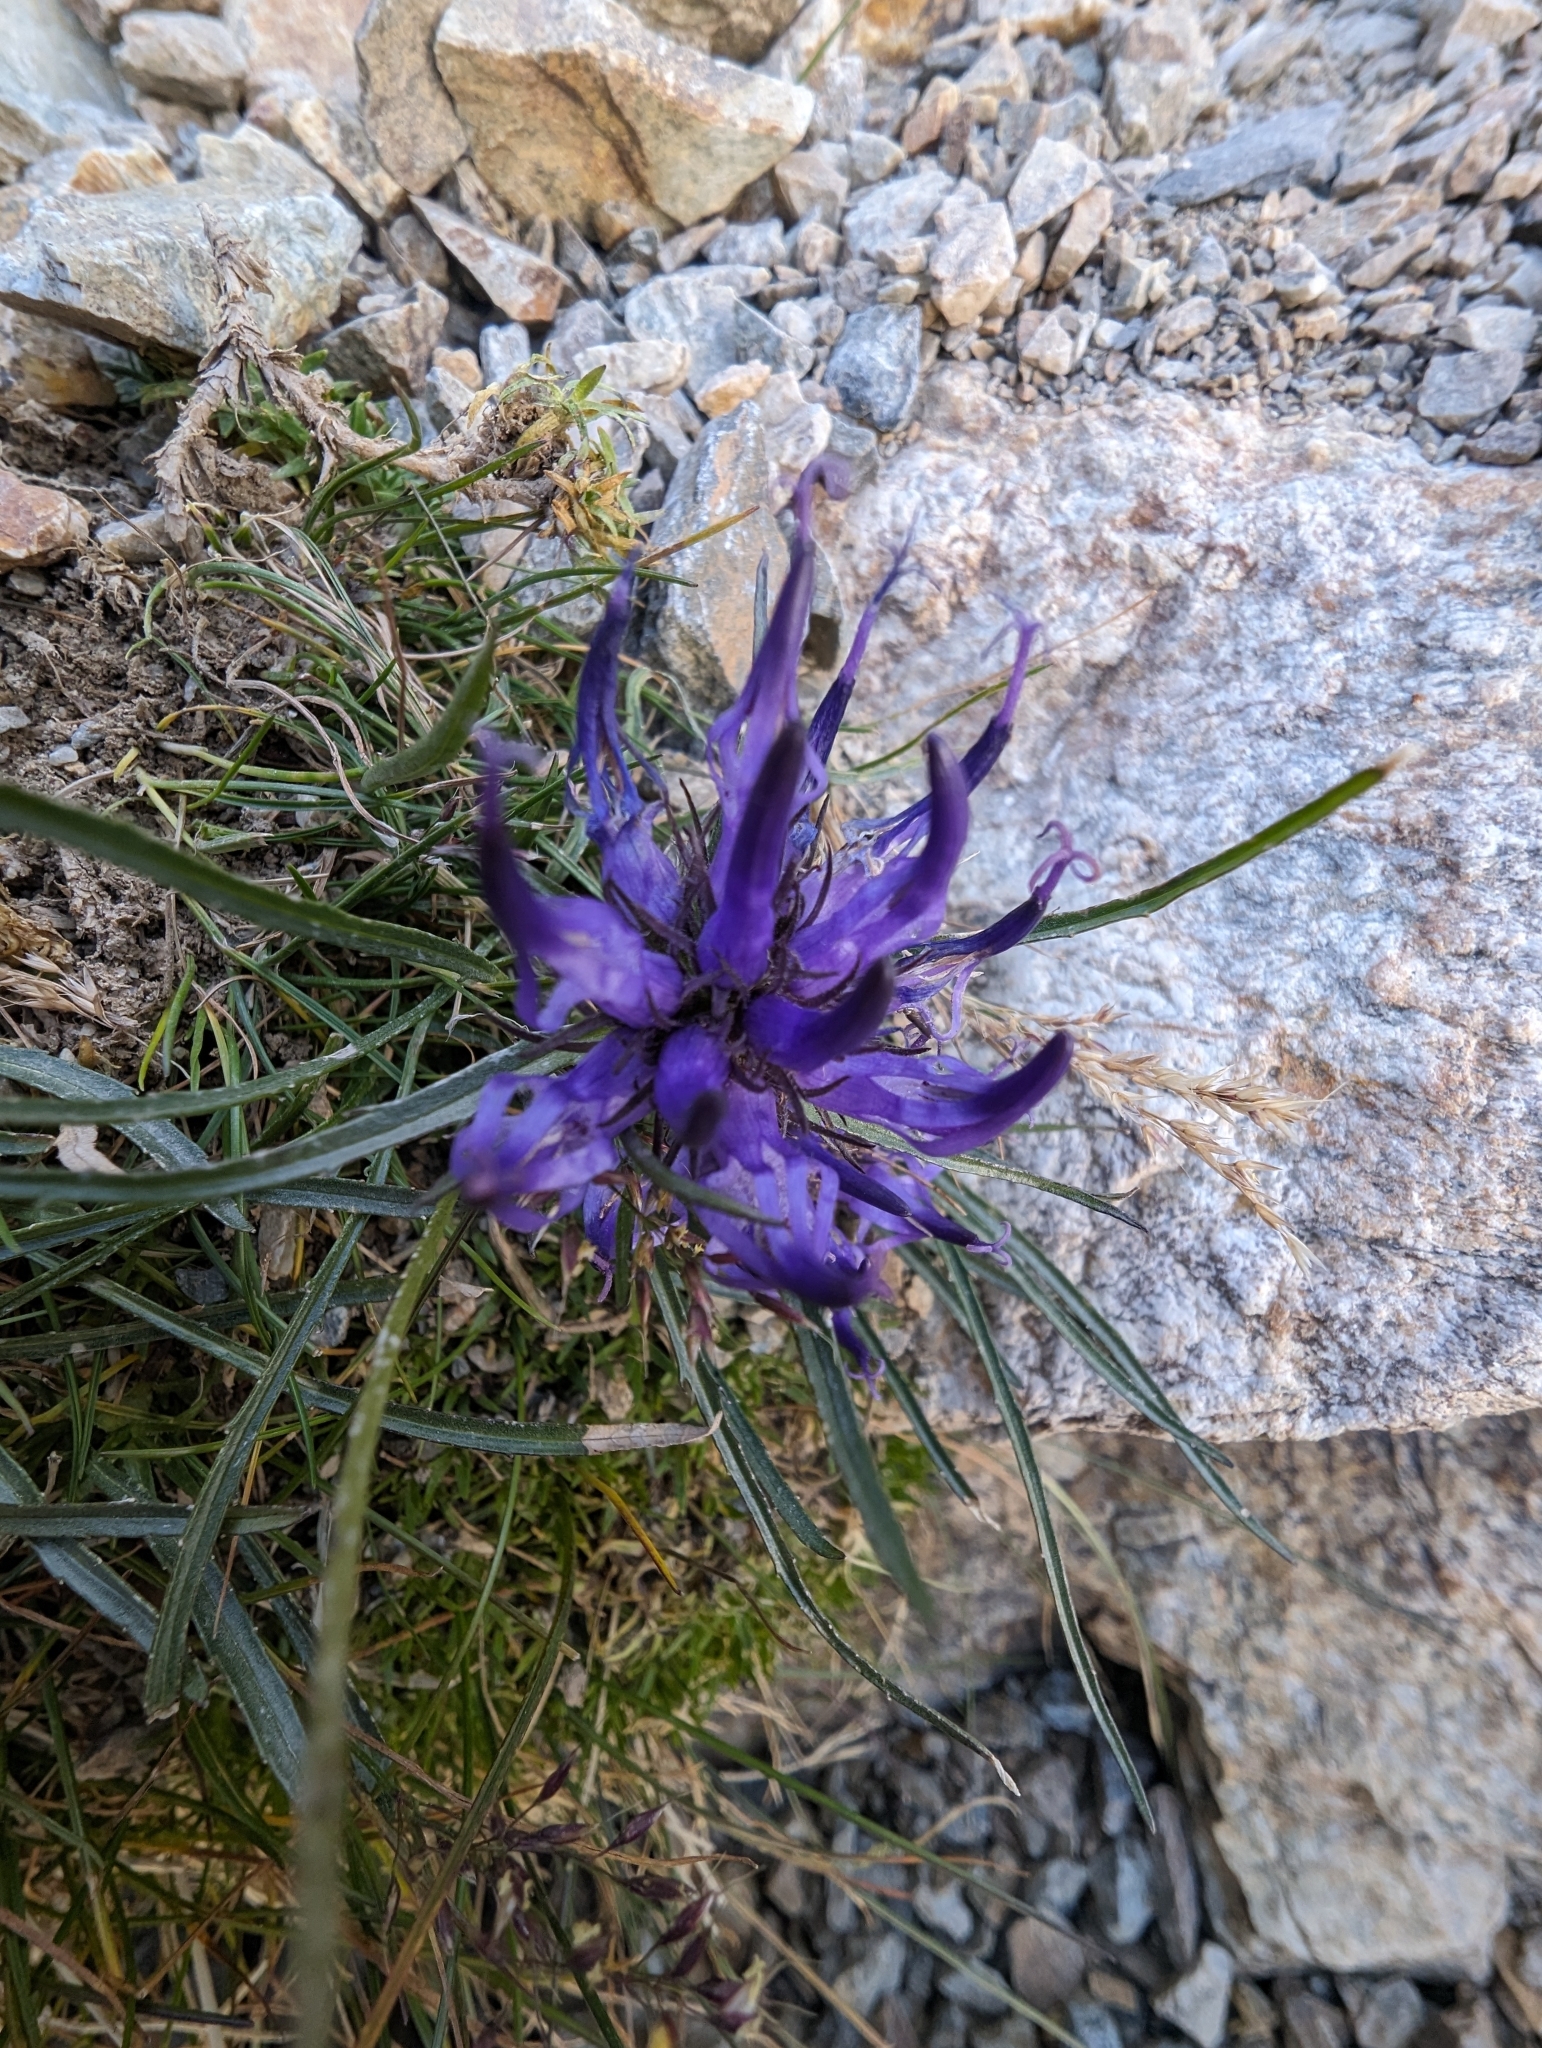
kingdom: Plantae
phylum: Tracheophyta
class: Magnoliopsida
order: Asterales
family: Campanulaceae
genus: Phyteuma
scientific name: Phyteuma hedraianthifolium
